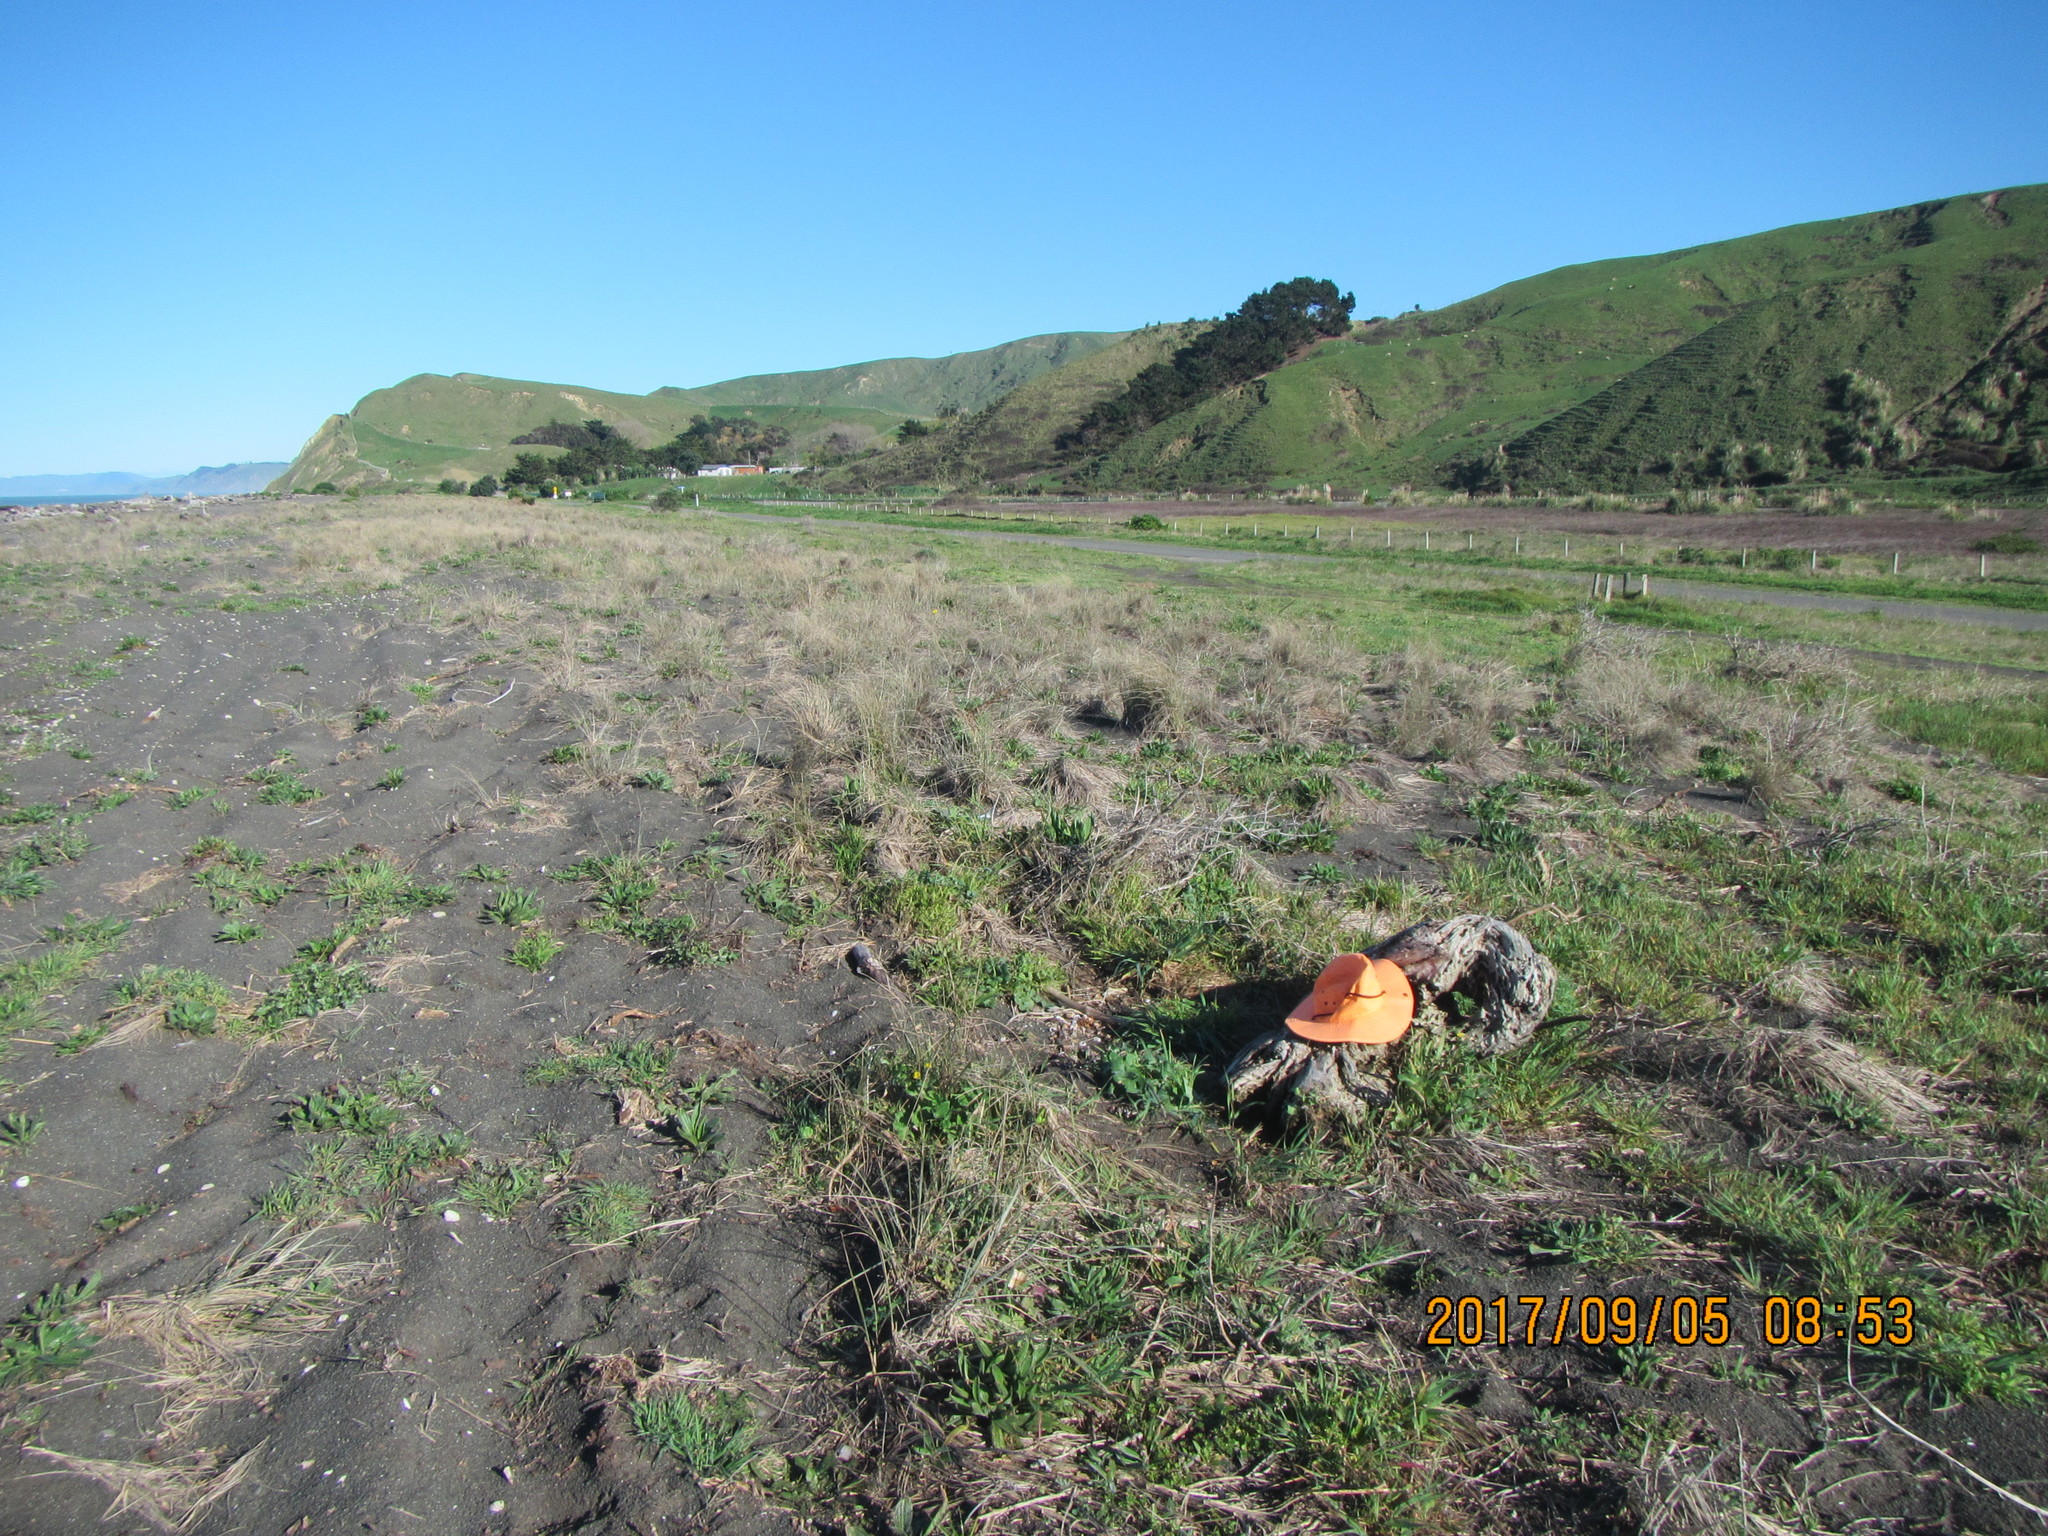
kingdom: Animalia
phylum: Mollusca
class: Gastropoda
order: Stylommatophora
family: Helicidae
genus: Cornu
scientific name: Cornu aspersum
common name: Brown garden snail
